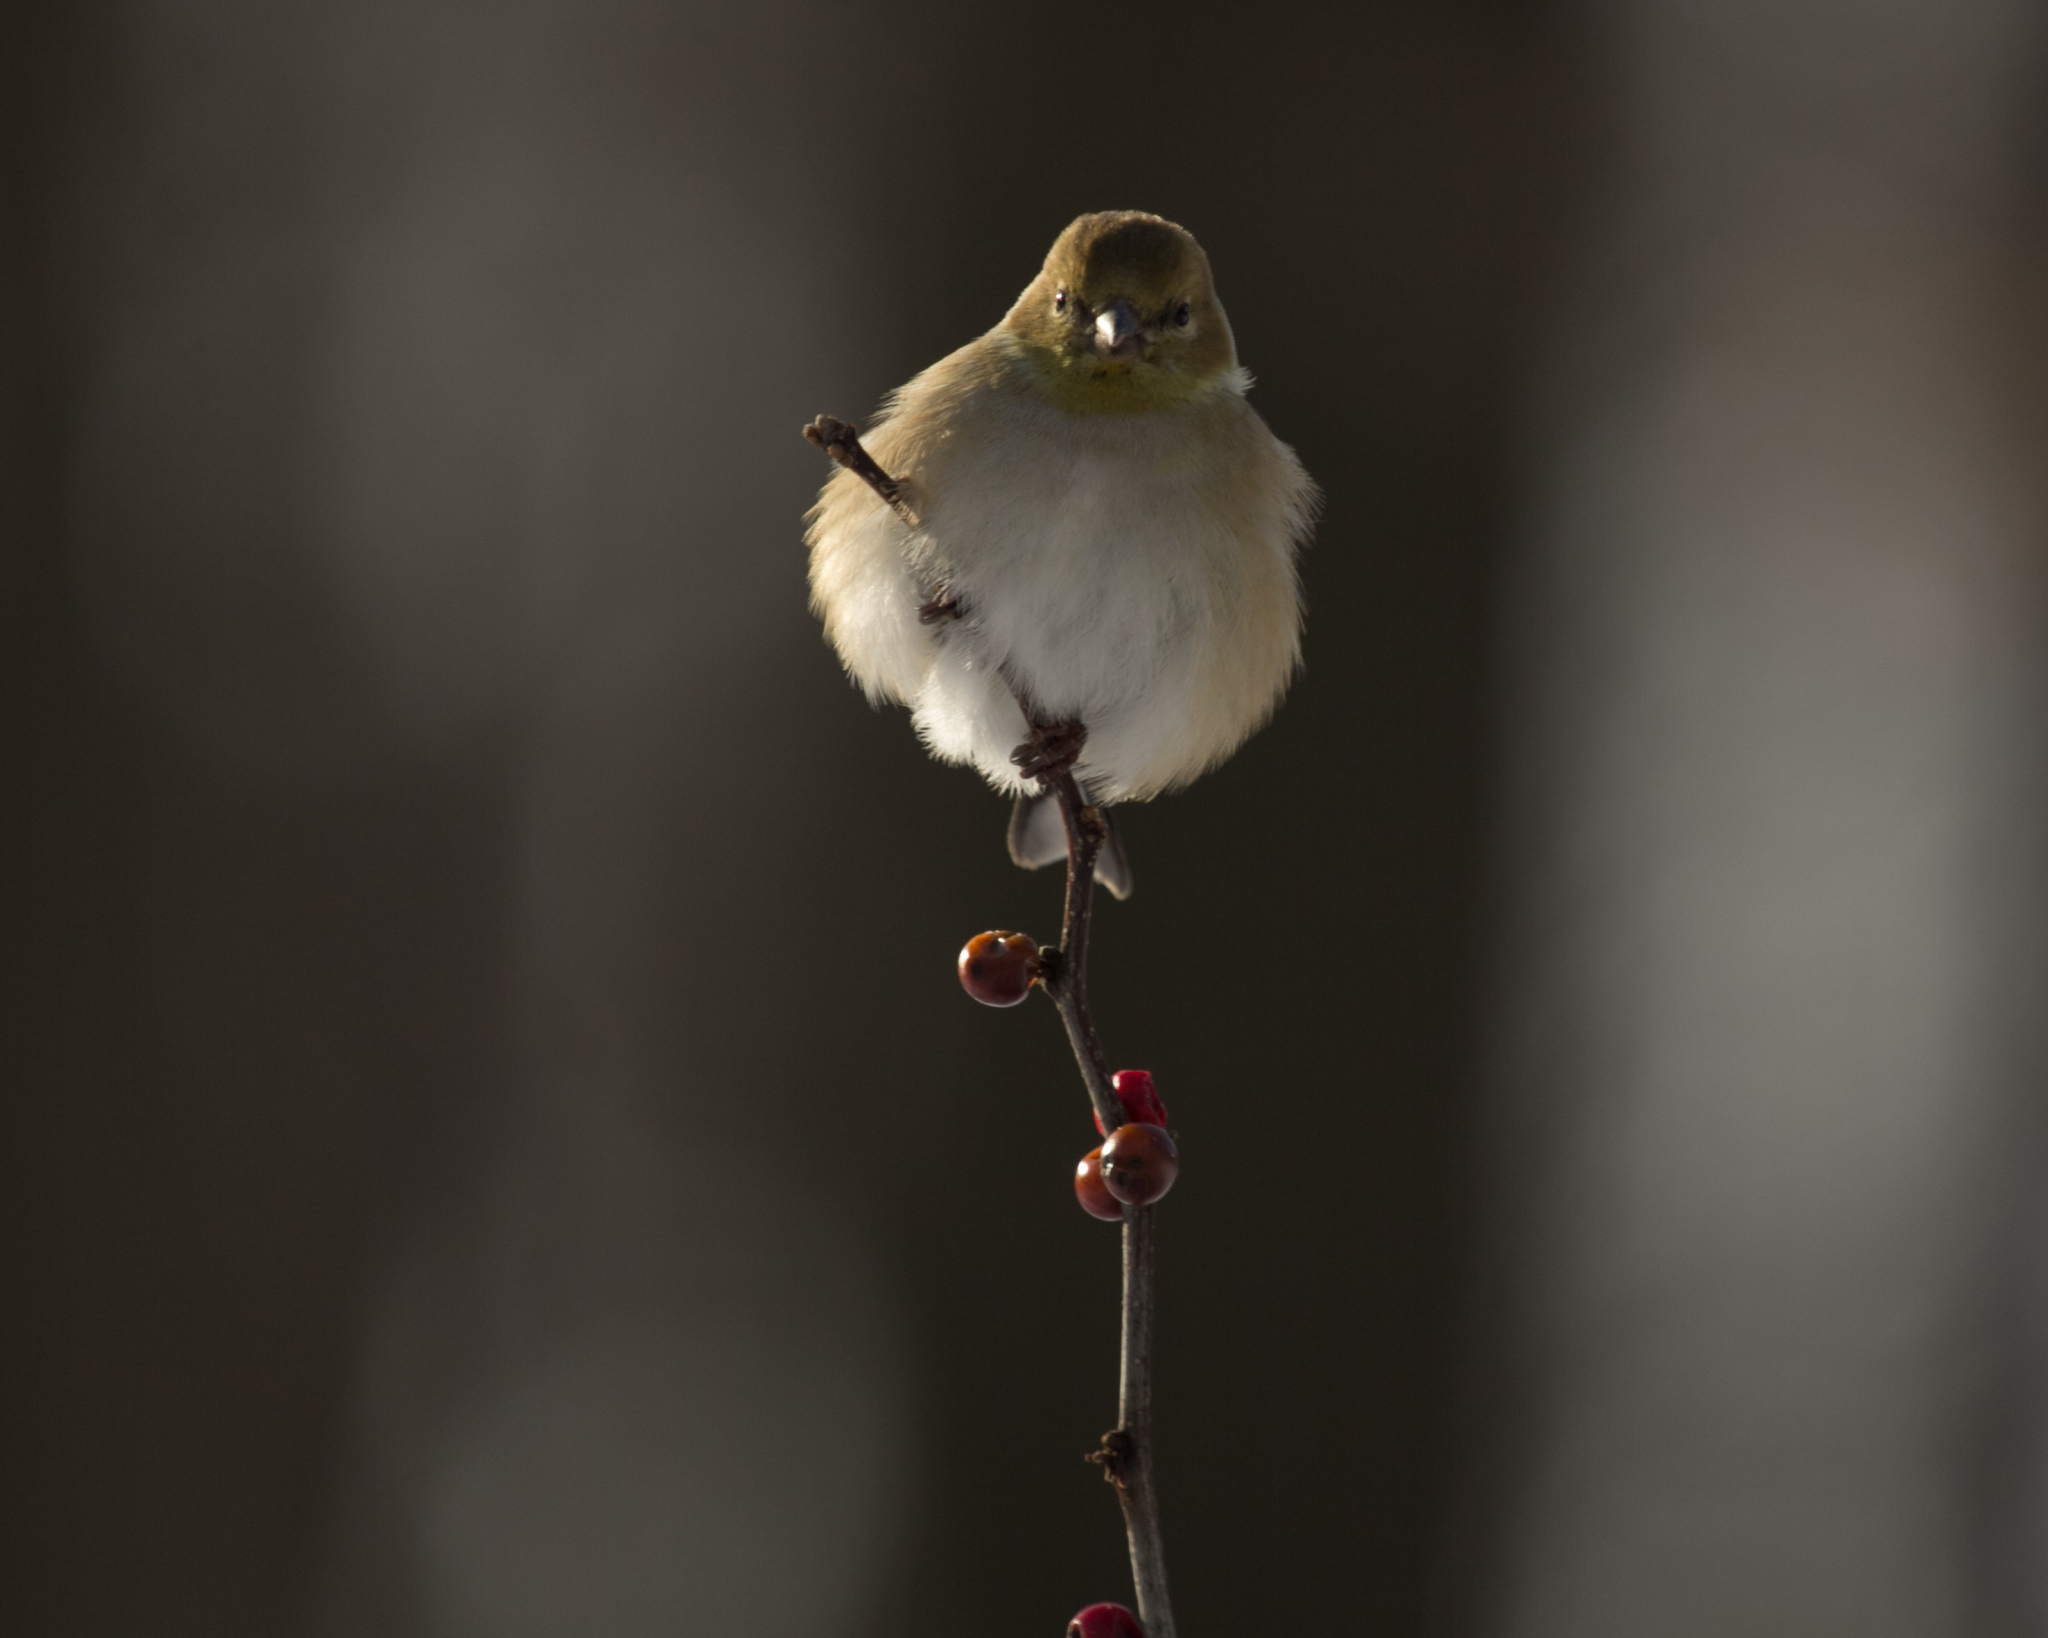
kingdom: Animalia
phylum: Chordata
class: Aves
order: Passeriformes
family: Fringillidae
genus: Spinus
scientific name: Spinus tristis
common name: American goldfinch
